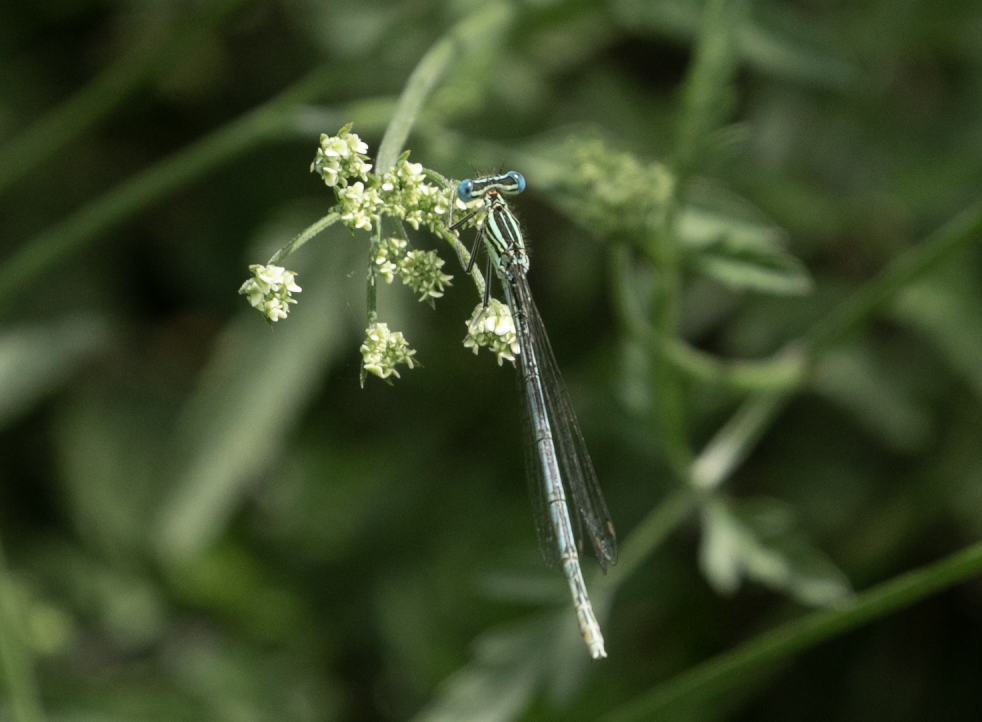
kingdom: Animalia
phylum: Arthropoda
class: Insecta
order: Odonata
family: Platycnemididae
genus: Platycnemis
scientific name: Platycnemis pennipes
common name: White-legged damselfly
